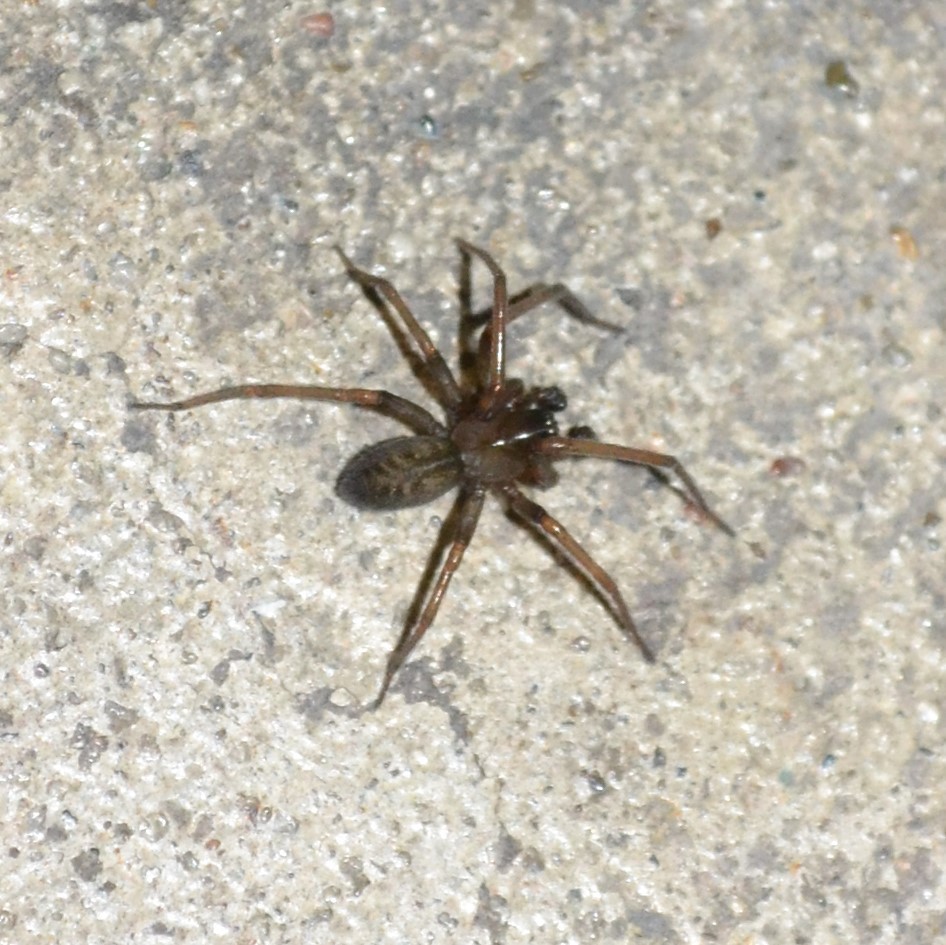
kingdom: Animalia
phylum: Arthropoda
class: Arachnida
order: Araneae
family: Desidae
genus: Metaltella
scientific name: Metaltella simoni
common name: Cribellate spider
